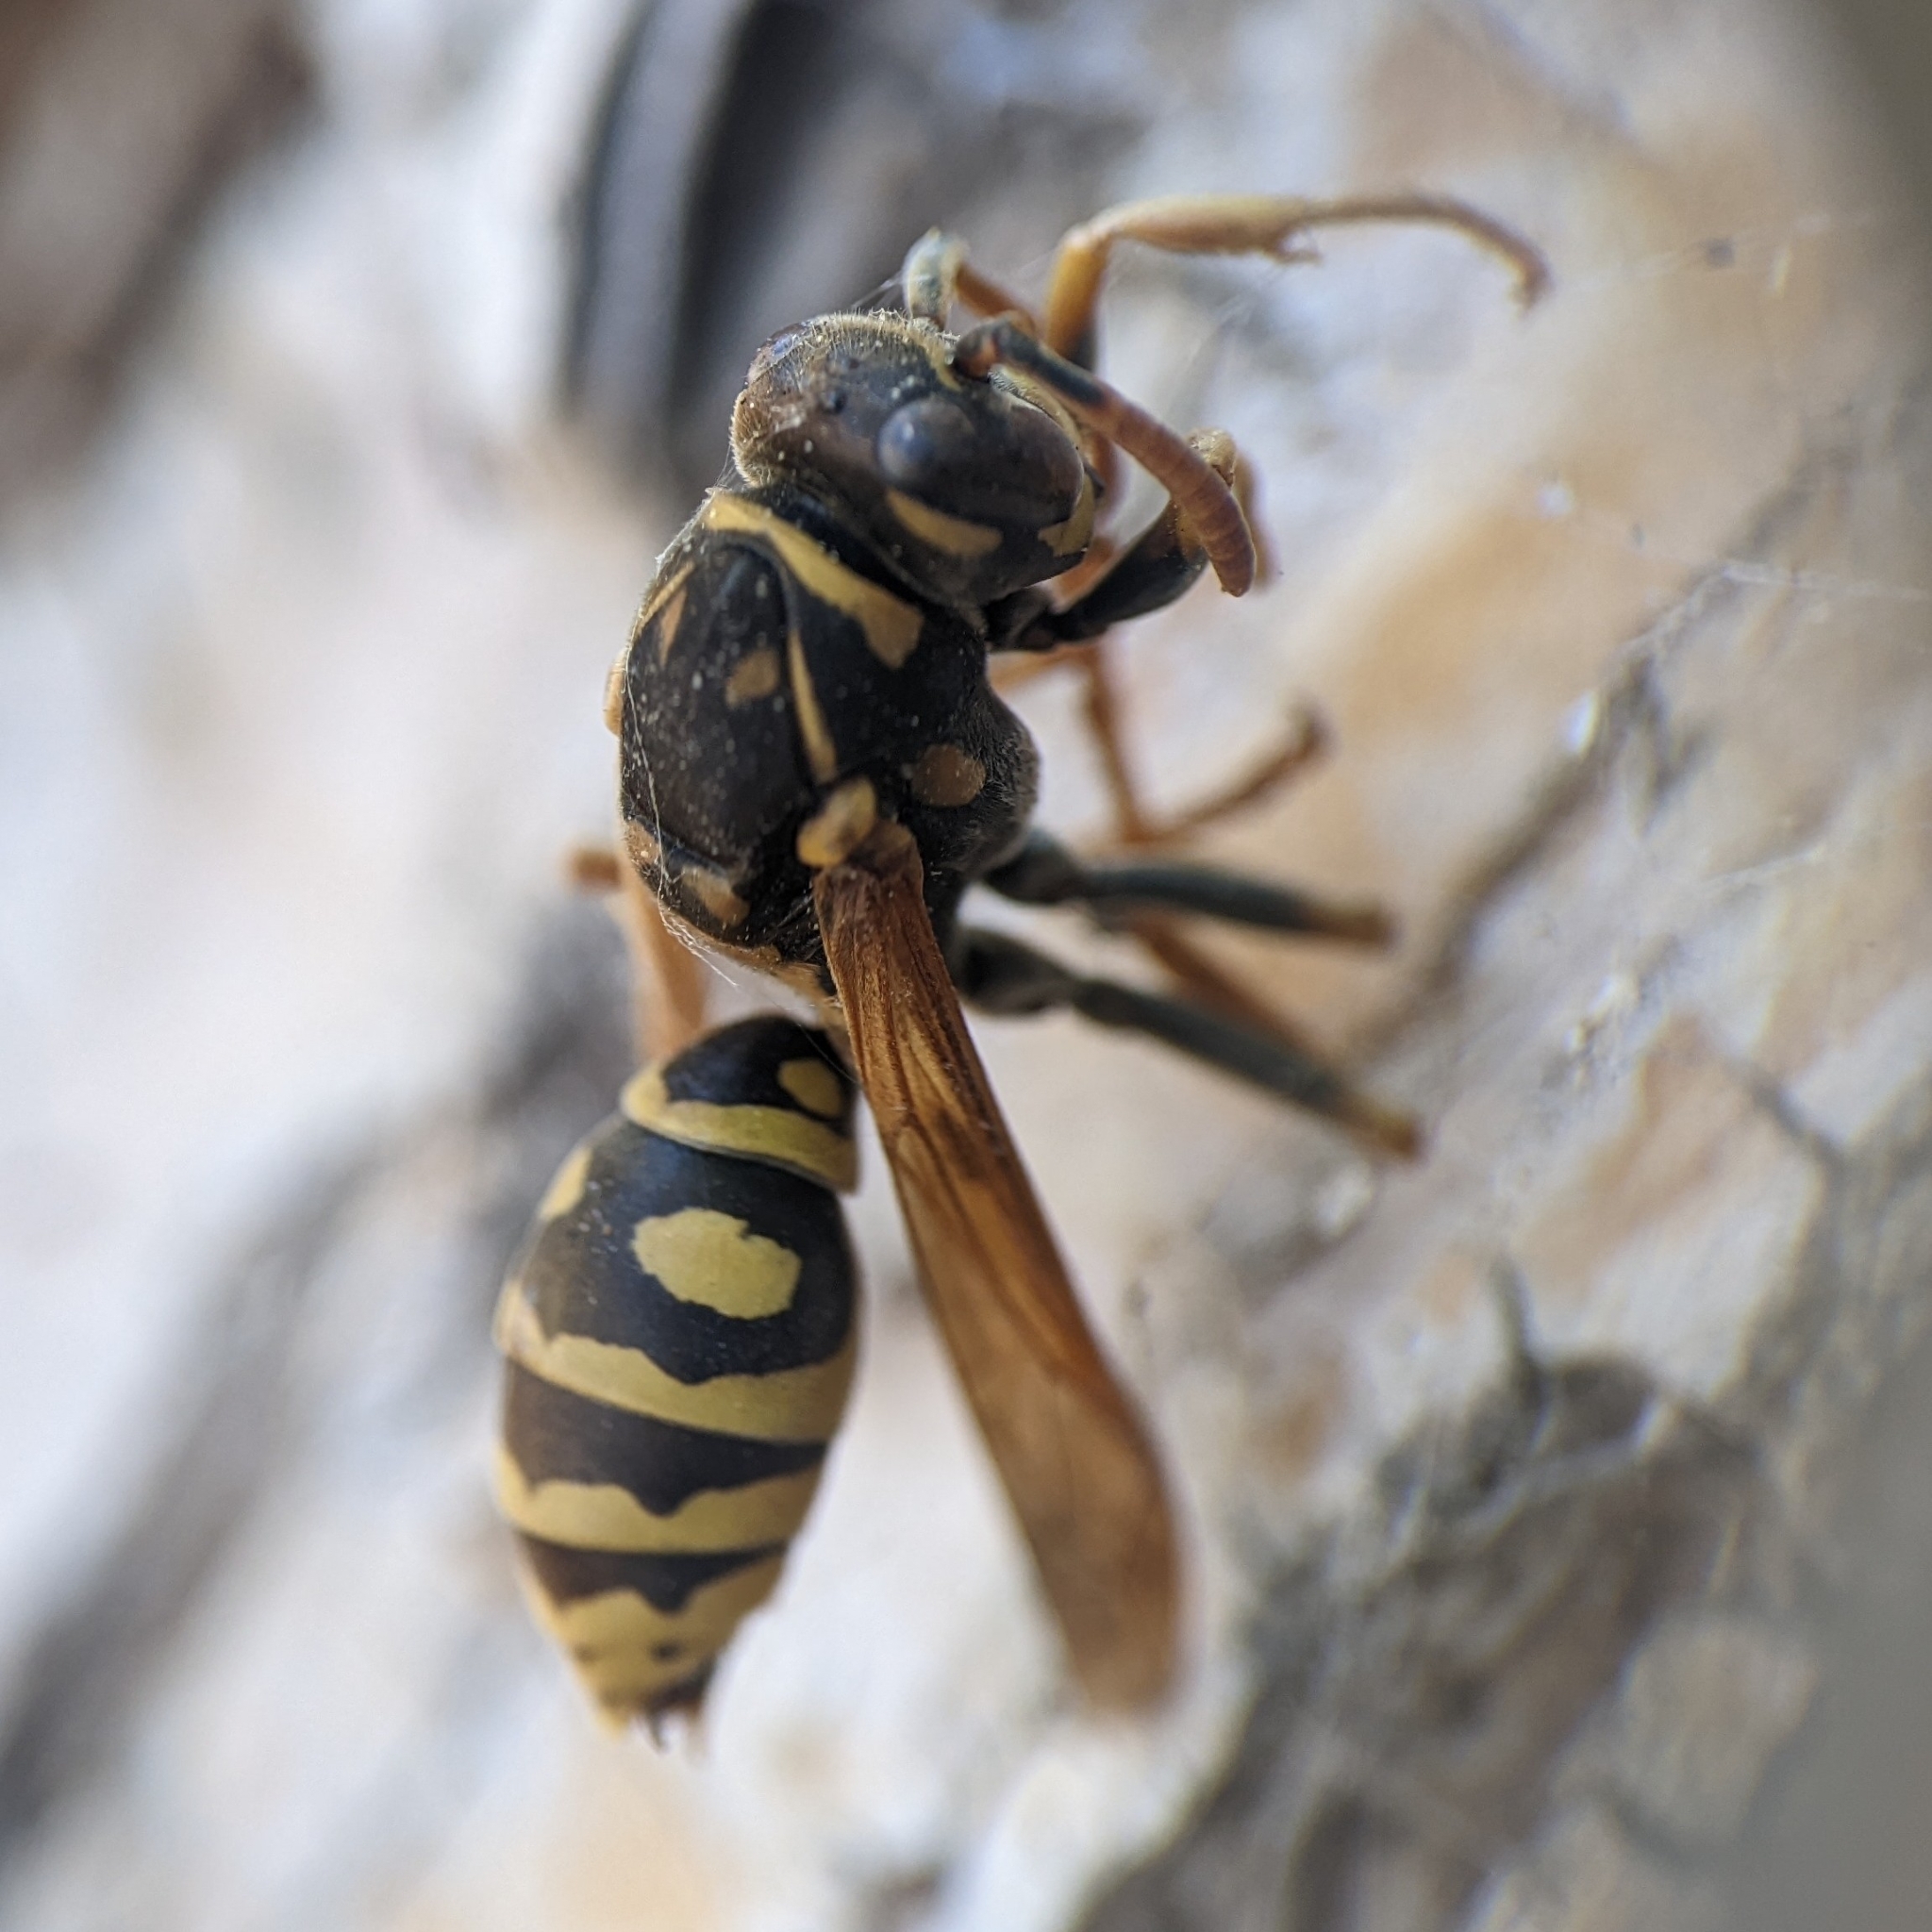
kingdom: Animalia
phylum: Arthropoda
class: Insecta
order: Hymenoptera
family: Eumenidae
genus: Polistes
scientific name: Polistes dominula
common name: Paper wasp
